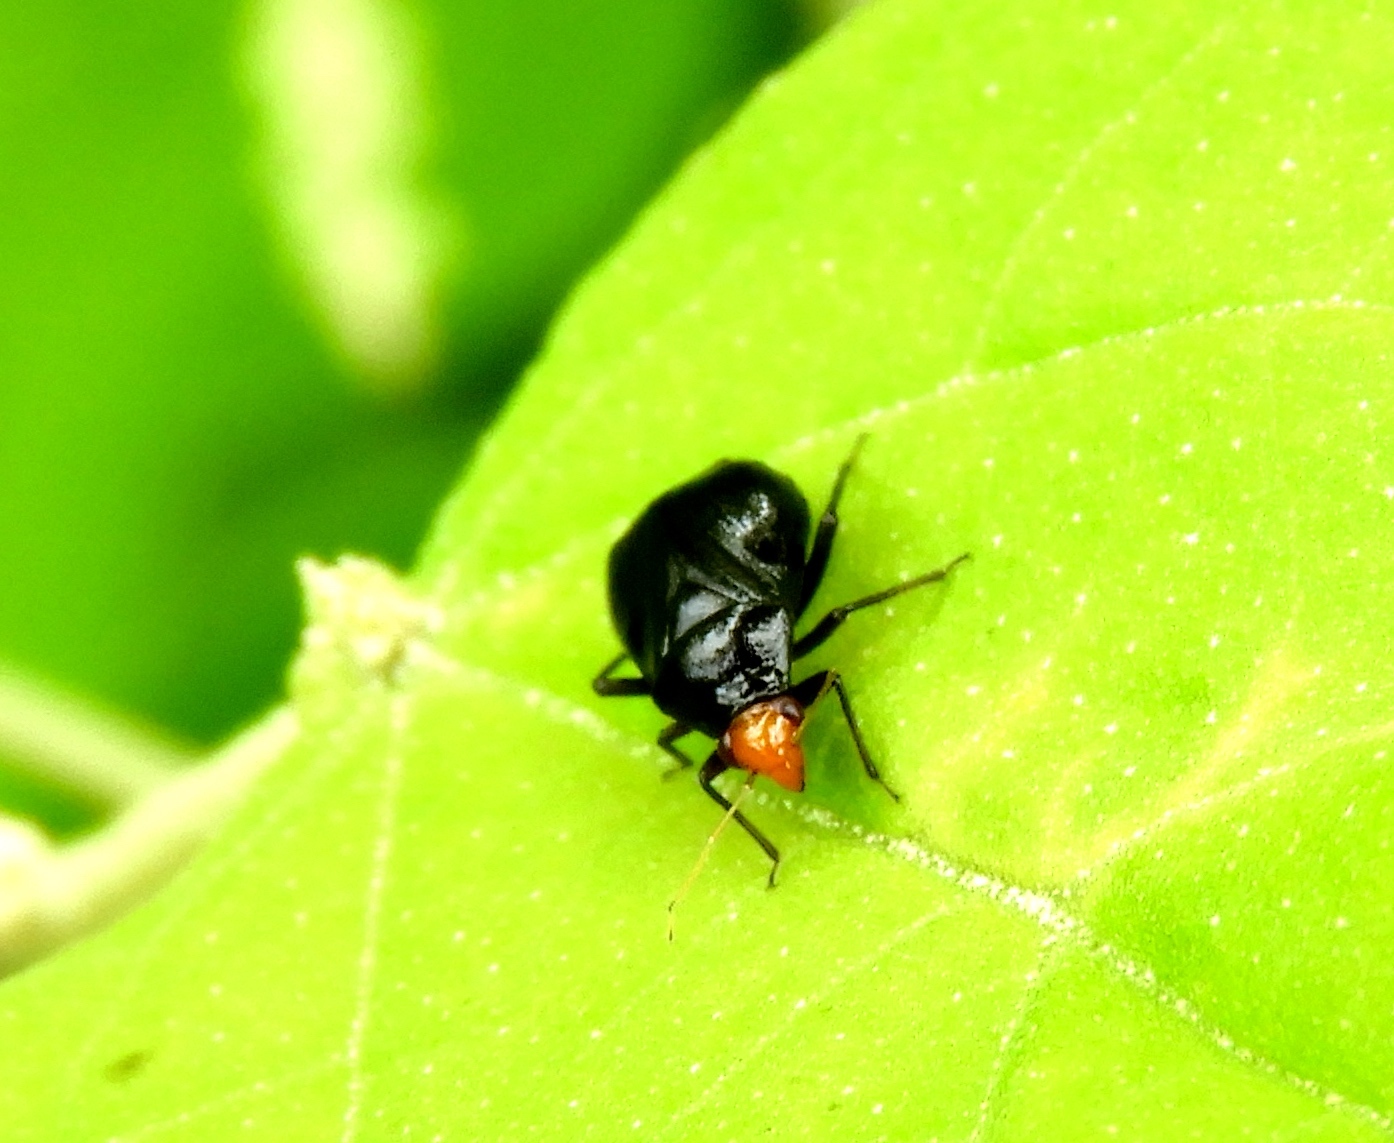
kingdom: Animalia
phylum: Arthropoda
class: Insecta
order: Hemiptera
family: Miridae
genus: Jornandinus
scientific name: Jornandinus grandis
